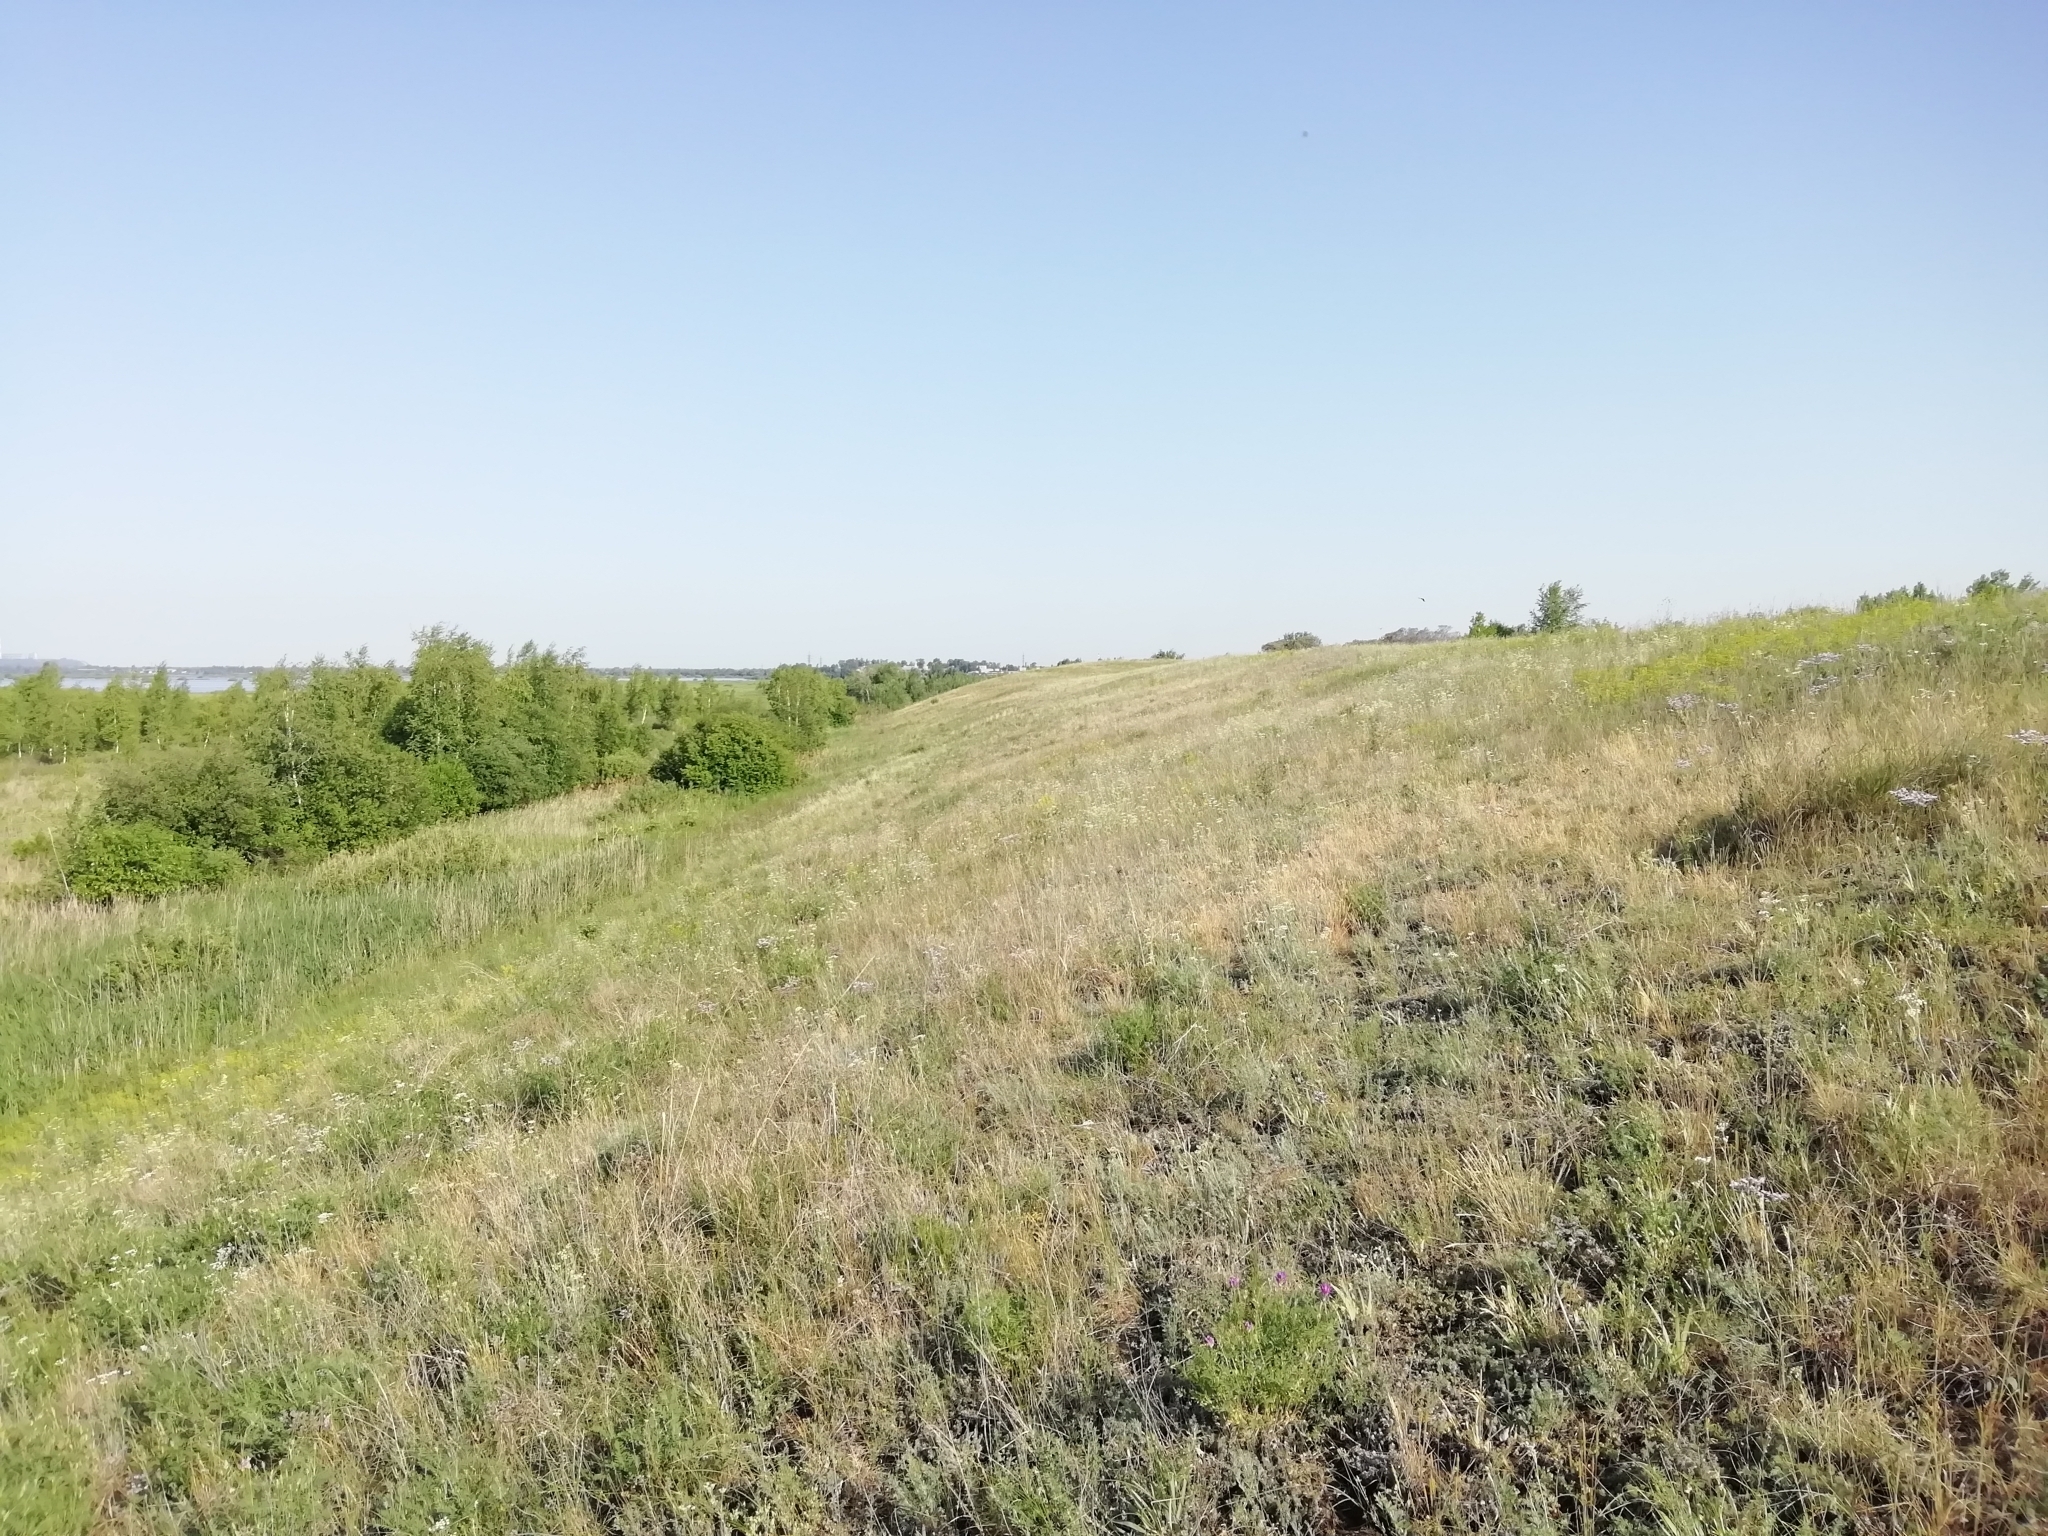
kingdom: Animalia
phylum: Arthropoda
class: Insecta
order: Lepidoptera
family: Lycaenidae
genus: Glabroculus
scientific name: Glabroculus cyane
